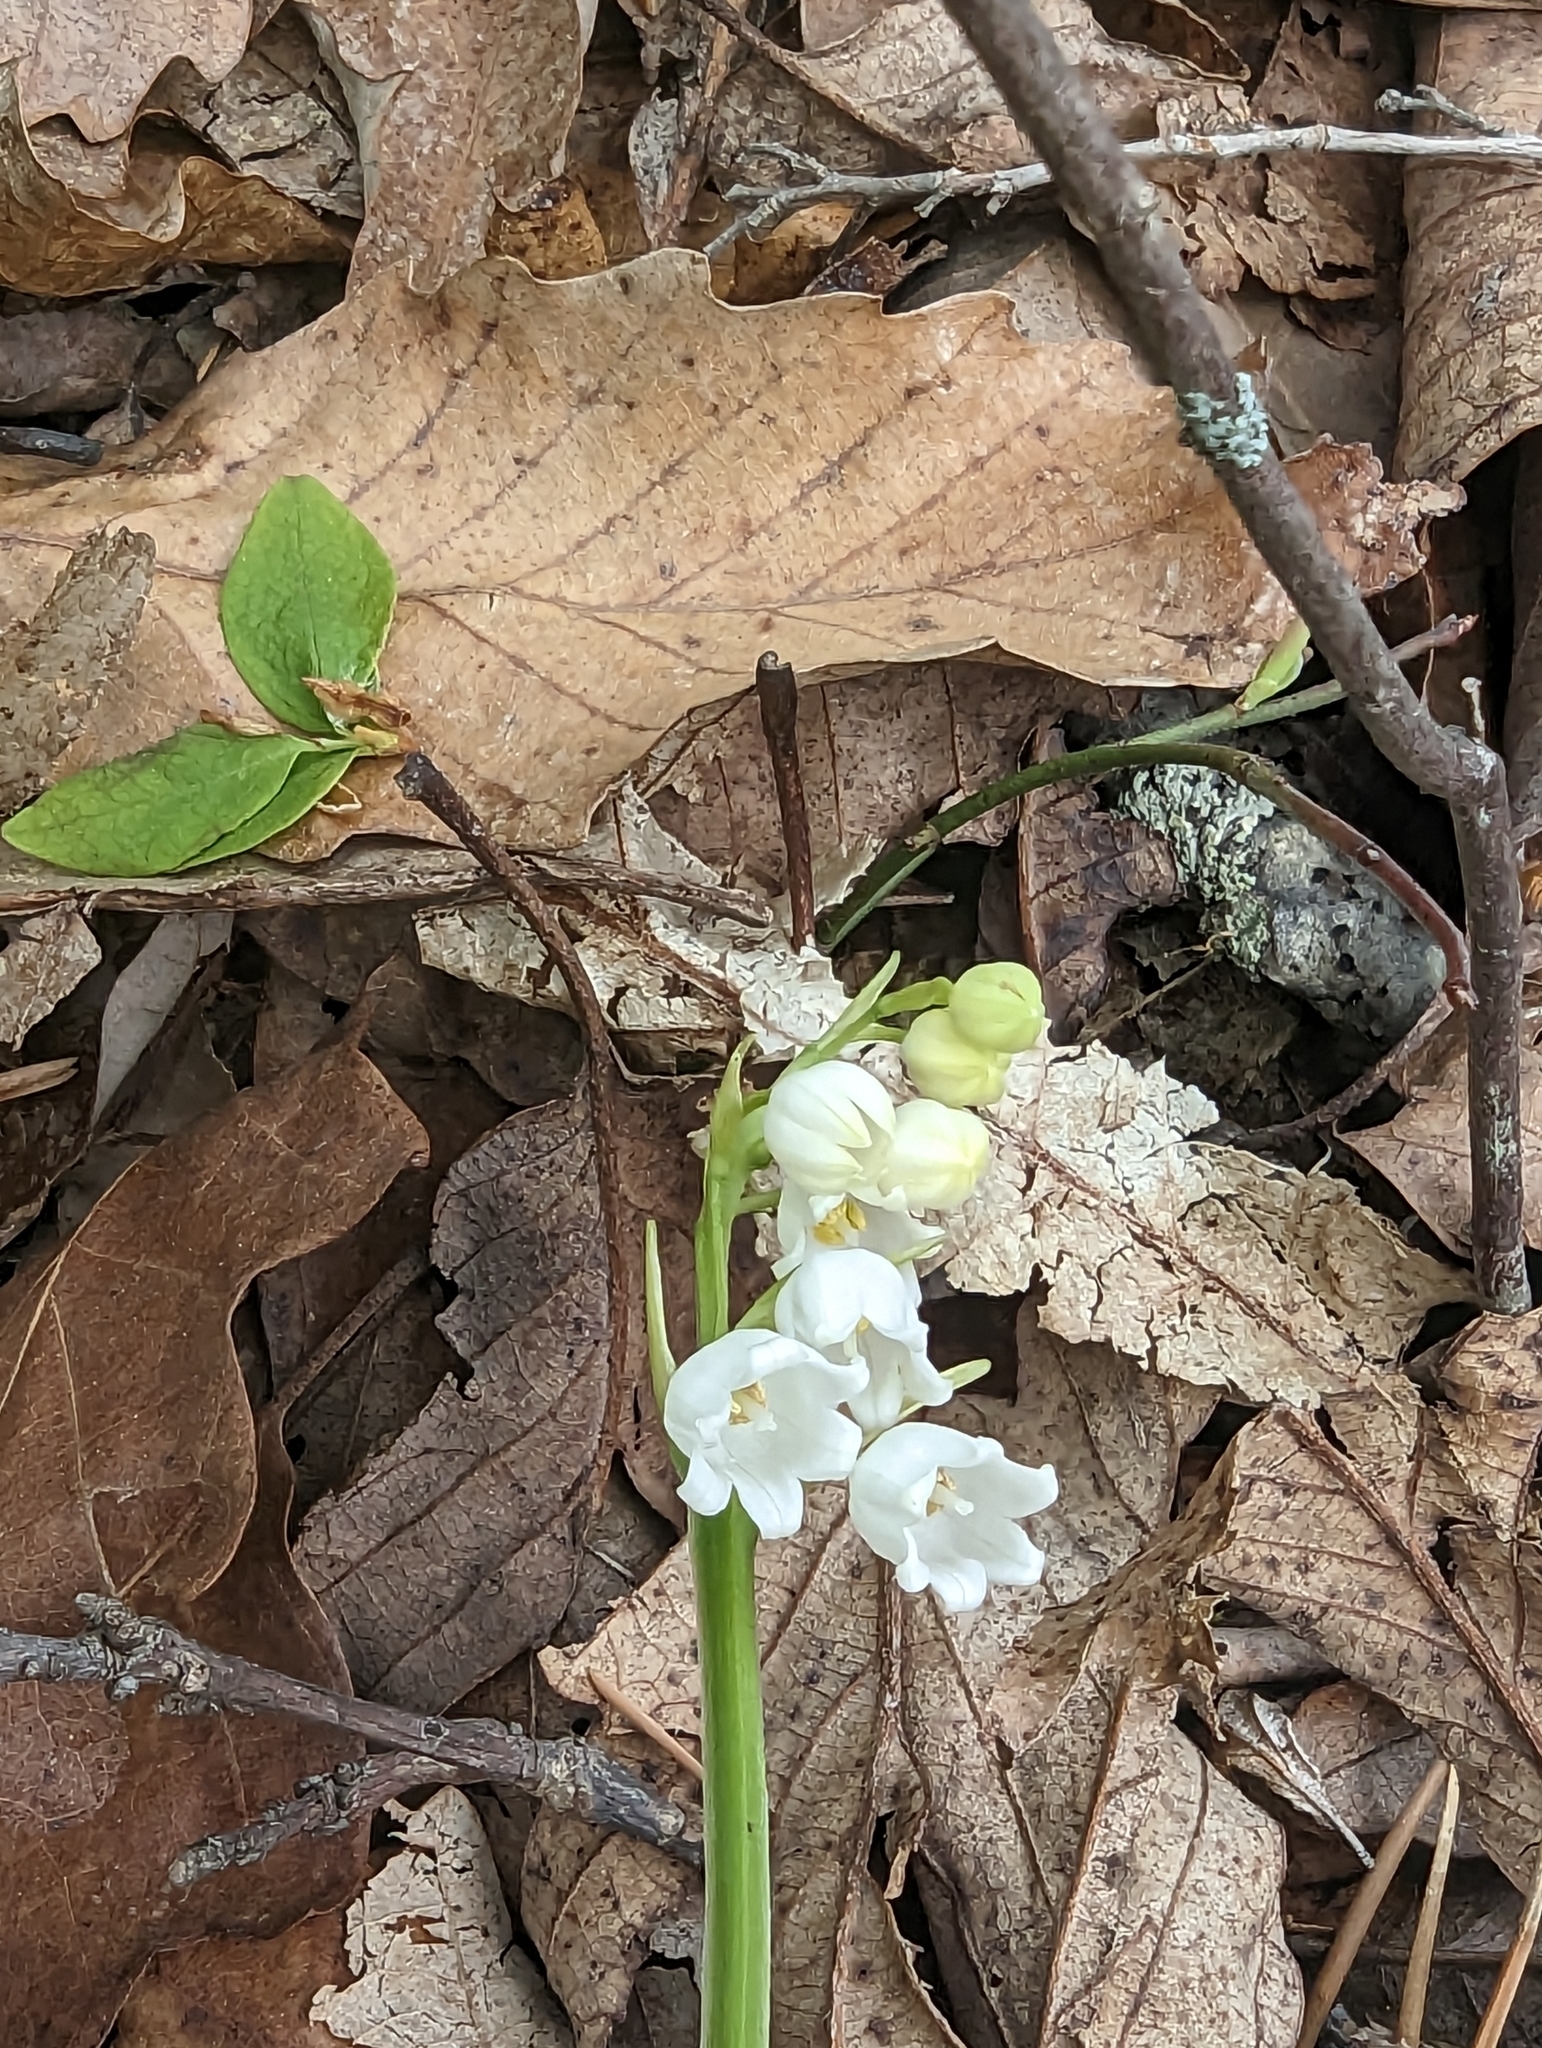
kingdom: Plantae
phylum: Tracheophyta
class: Liliopsida
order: Asparagales
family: Asparagaceae
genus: Convallaria
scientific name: Convallaria pseudomajalis
